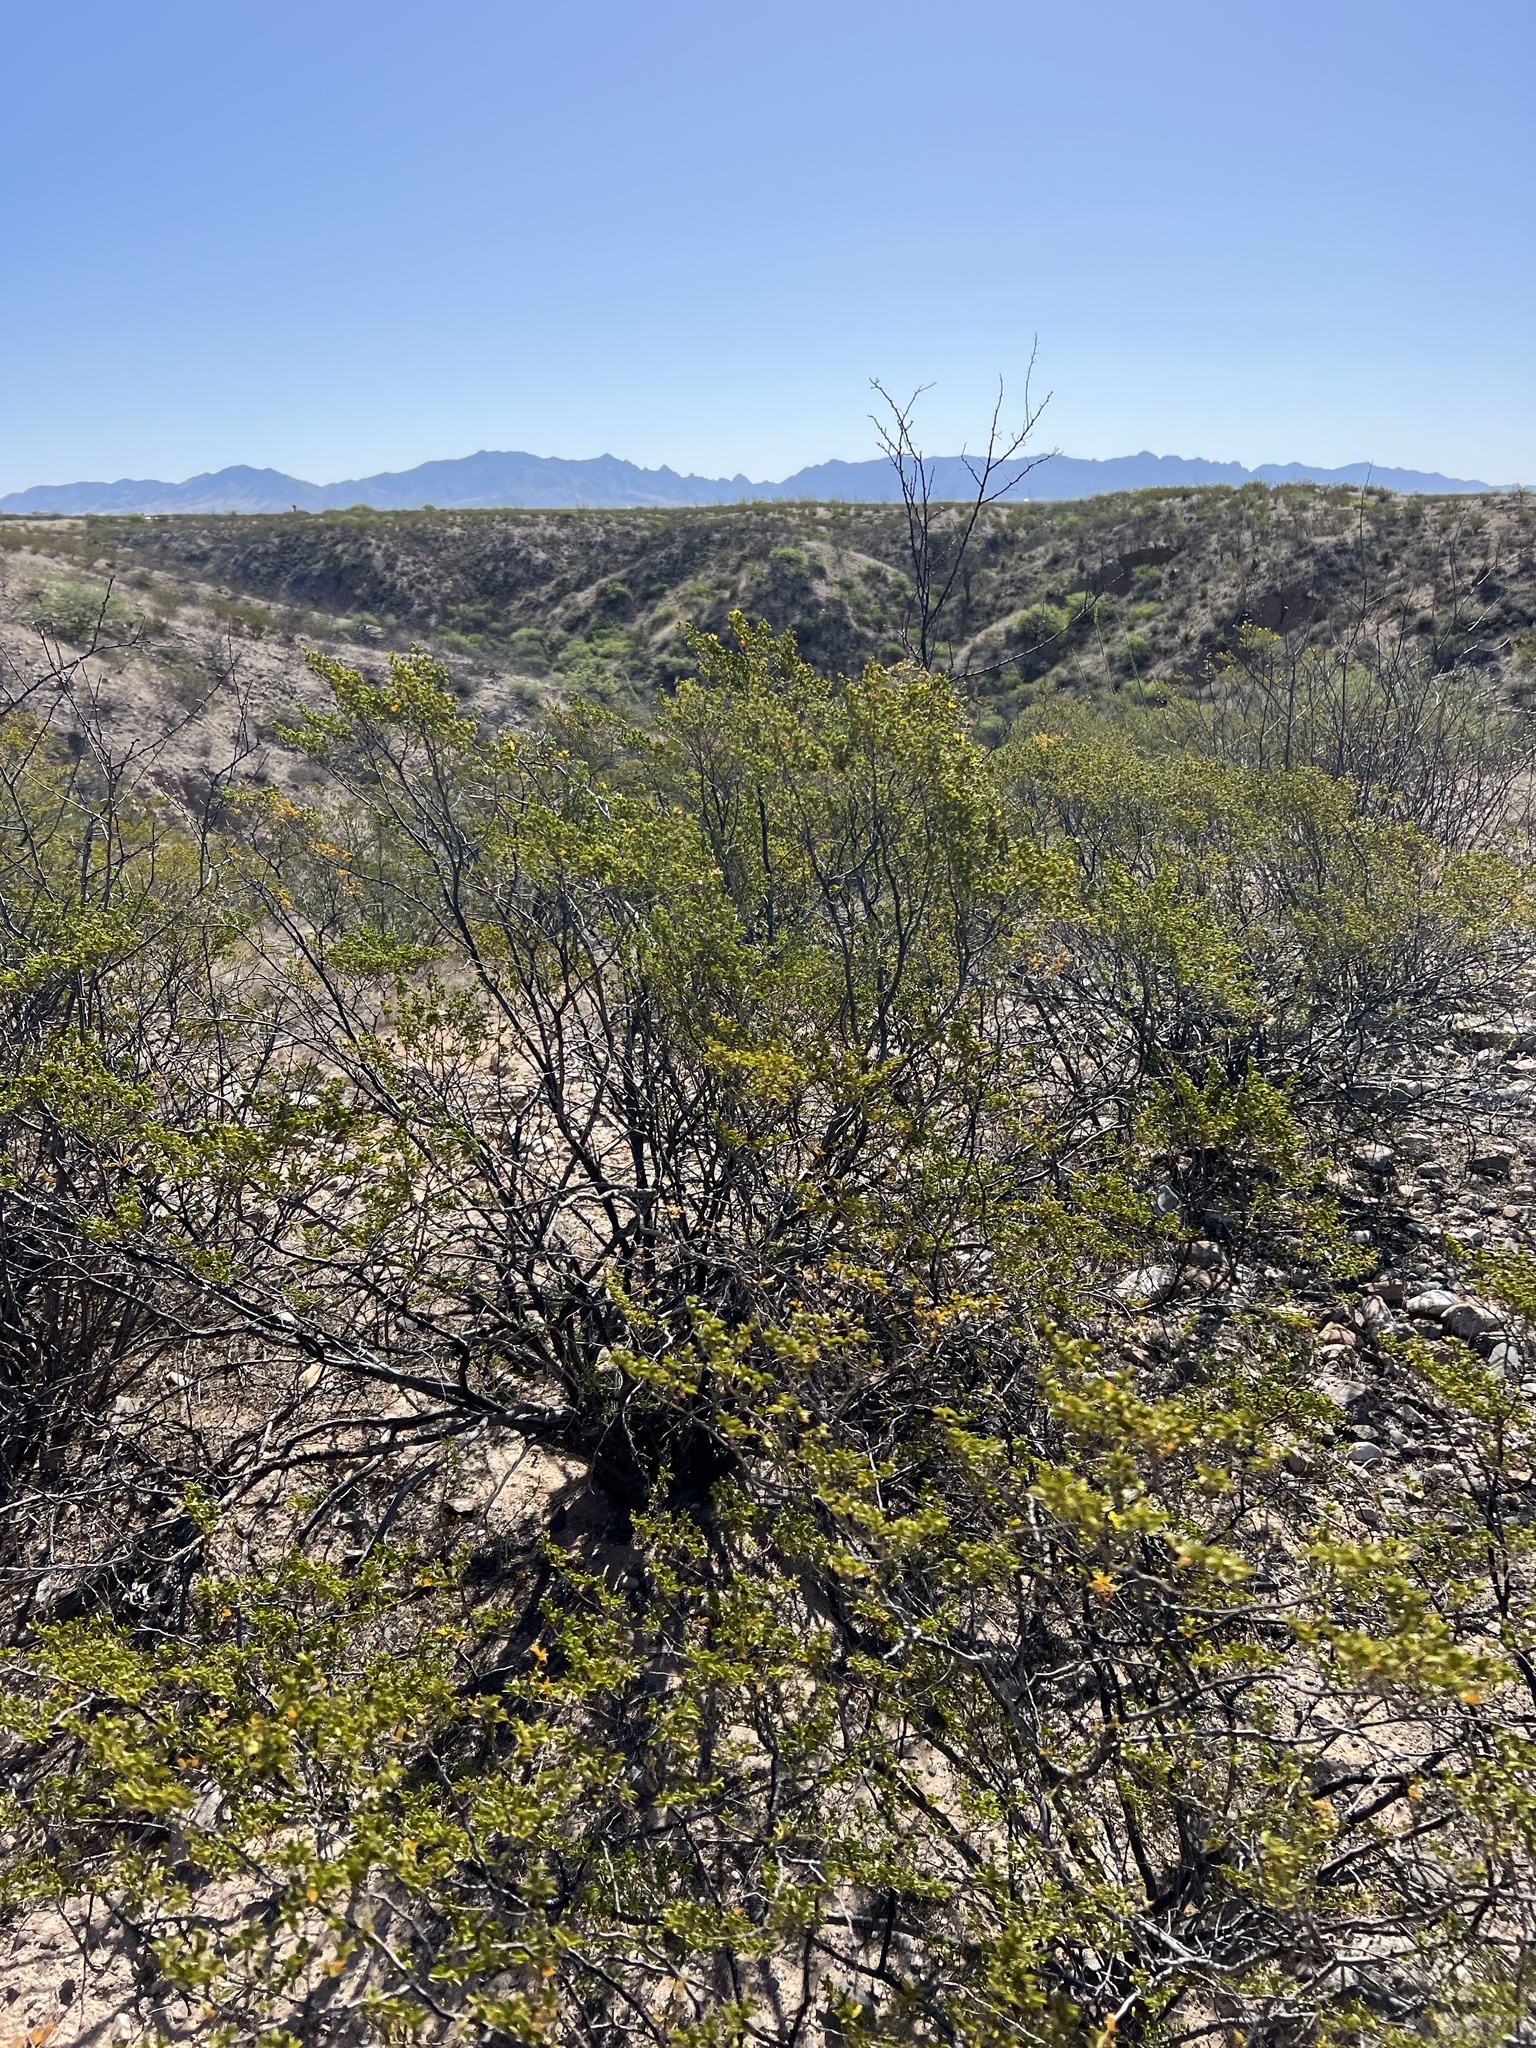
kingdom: Plantae
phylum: Tracheophyta
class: Magnoliopsida
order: Zygophyllales
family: Zygophyllaceae
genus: Larrea
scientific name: Larrea tridentata
